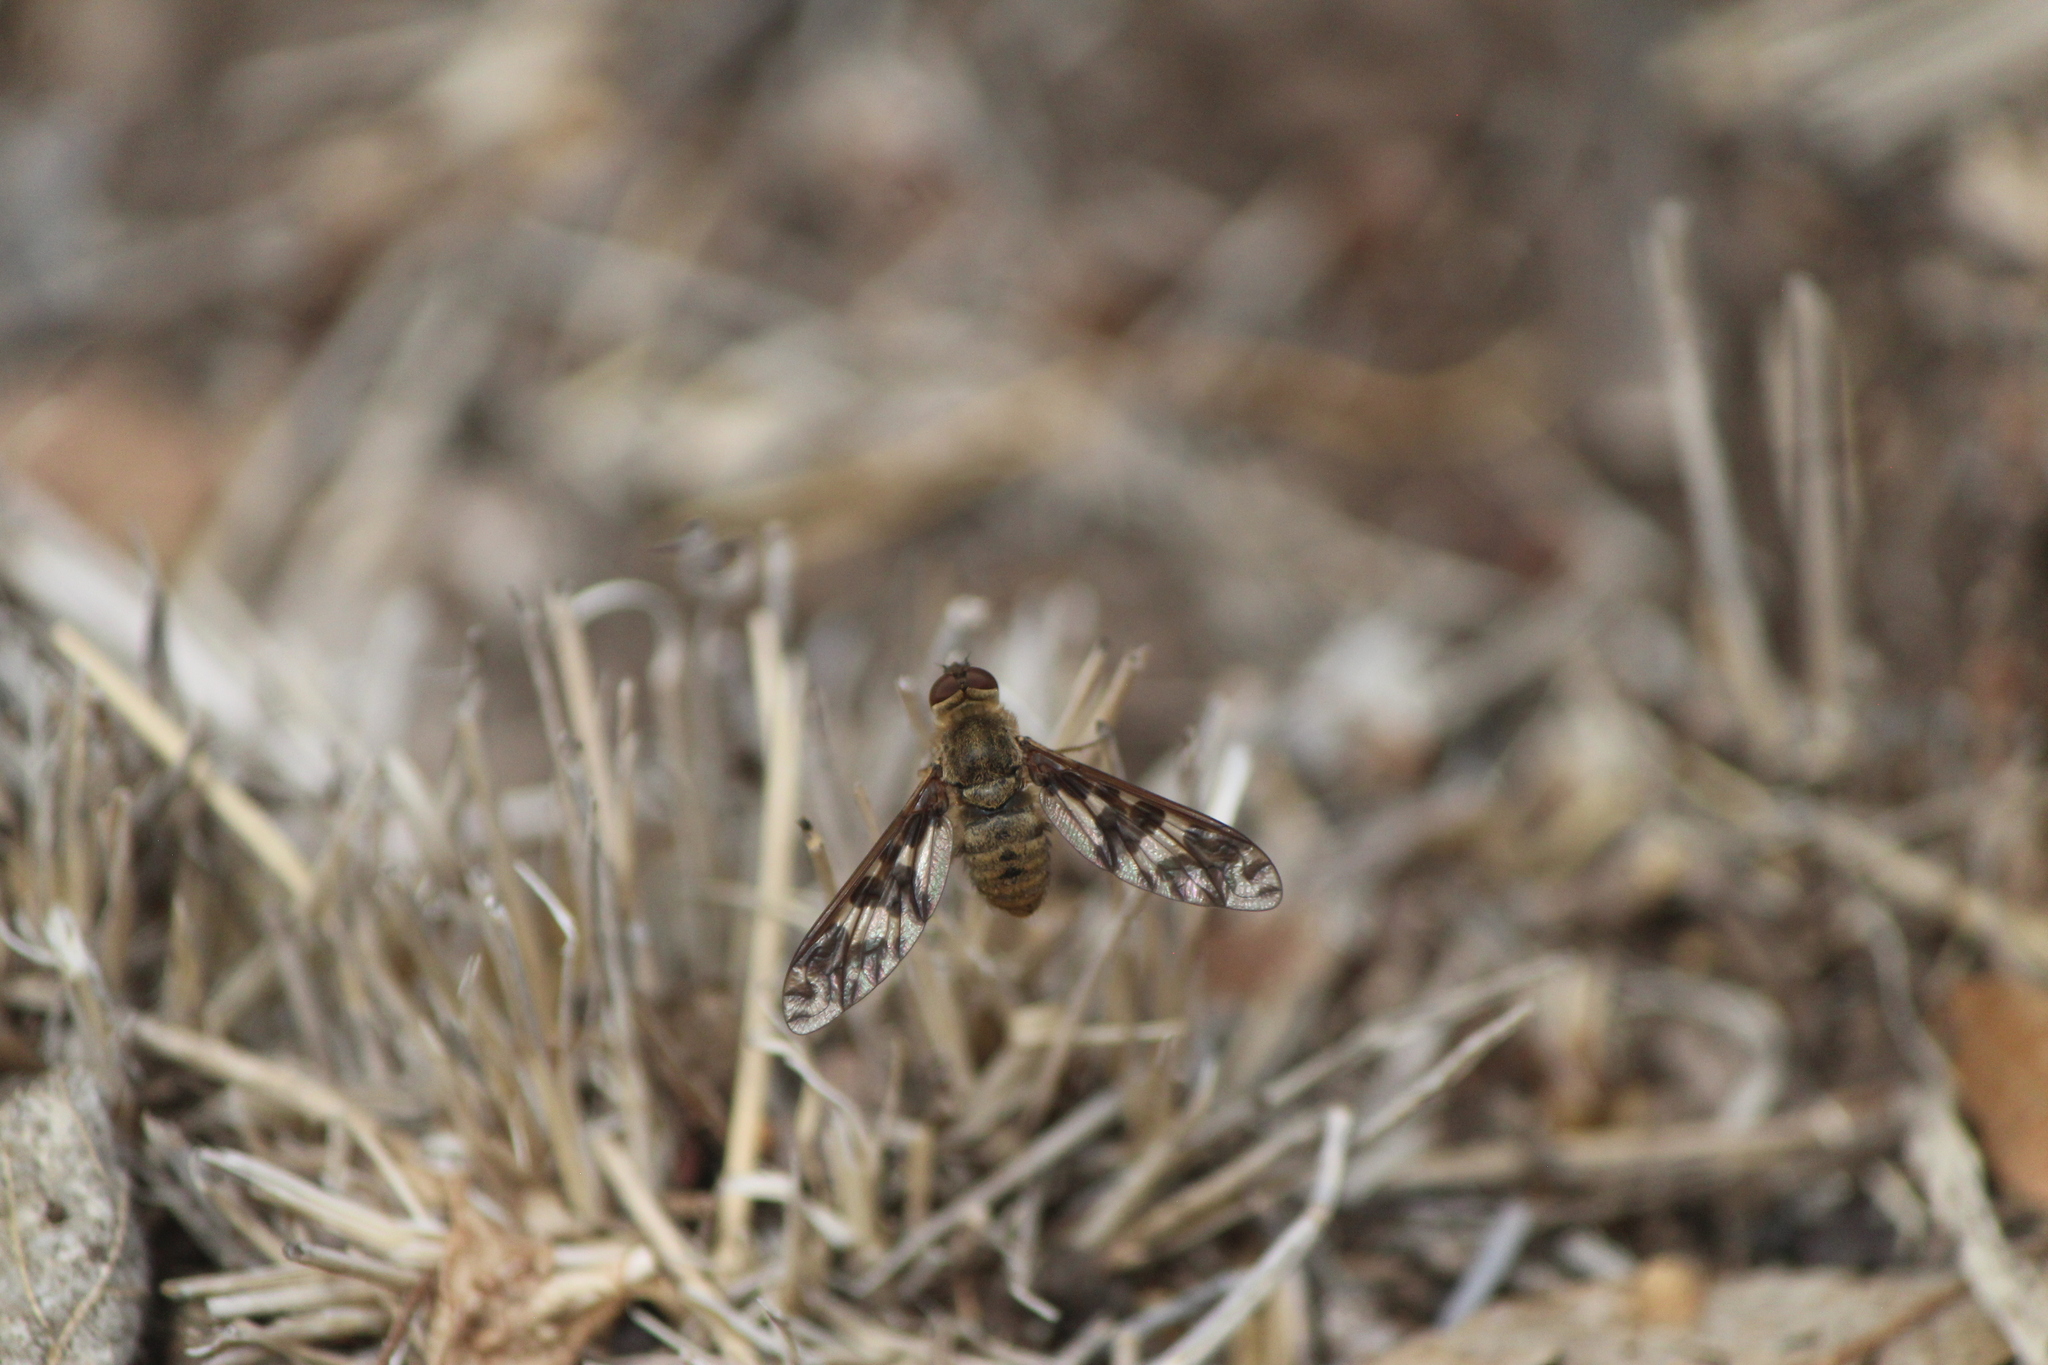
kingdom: Animalia
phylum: Arthropoda
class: Insecta
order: Diptera
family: Bombyliidae
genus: Dipalta
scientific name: Dipalta serpentina
